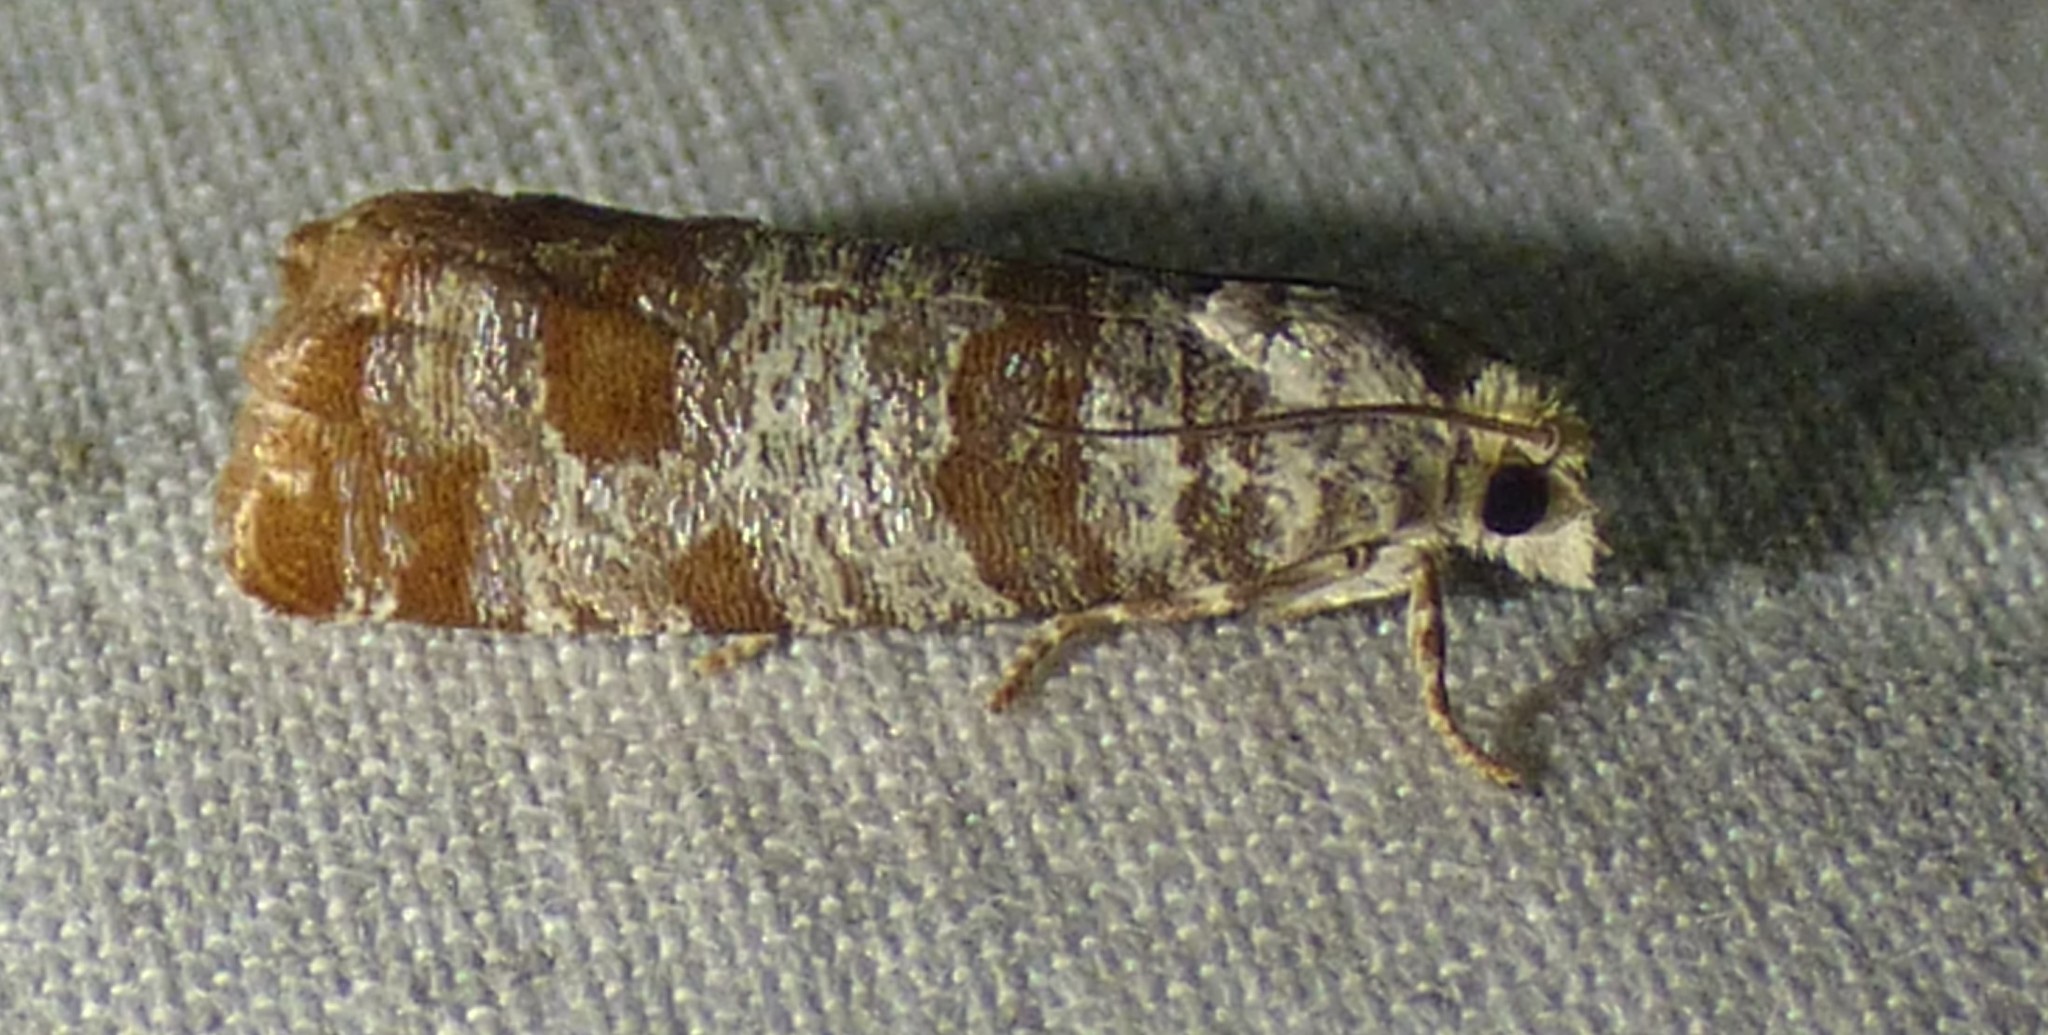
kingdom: Animalia
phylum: Arthropoda
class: Insecta
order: Lepidoptera
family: Tortricidae
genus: Retinia
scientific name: Retinia comstockiana
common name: Pitch twig moth
